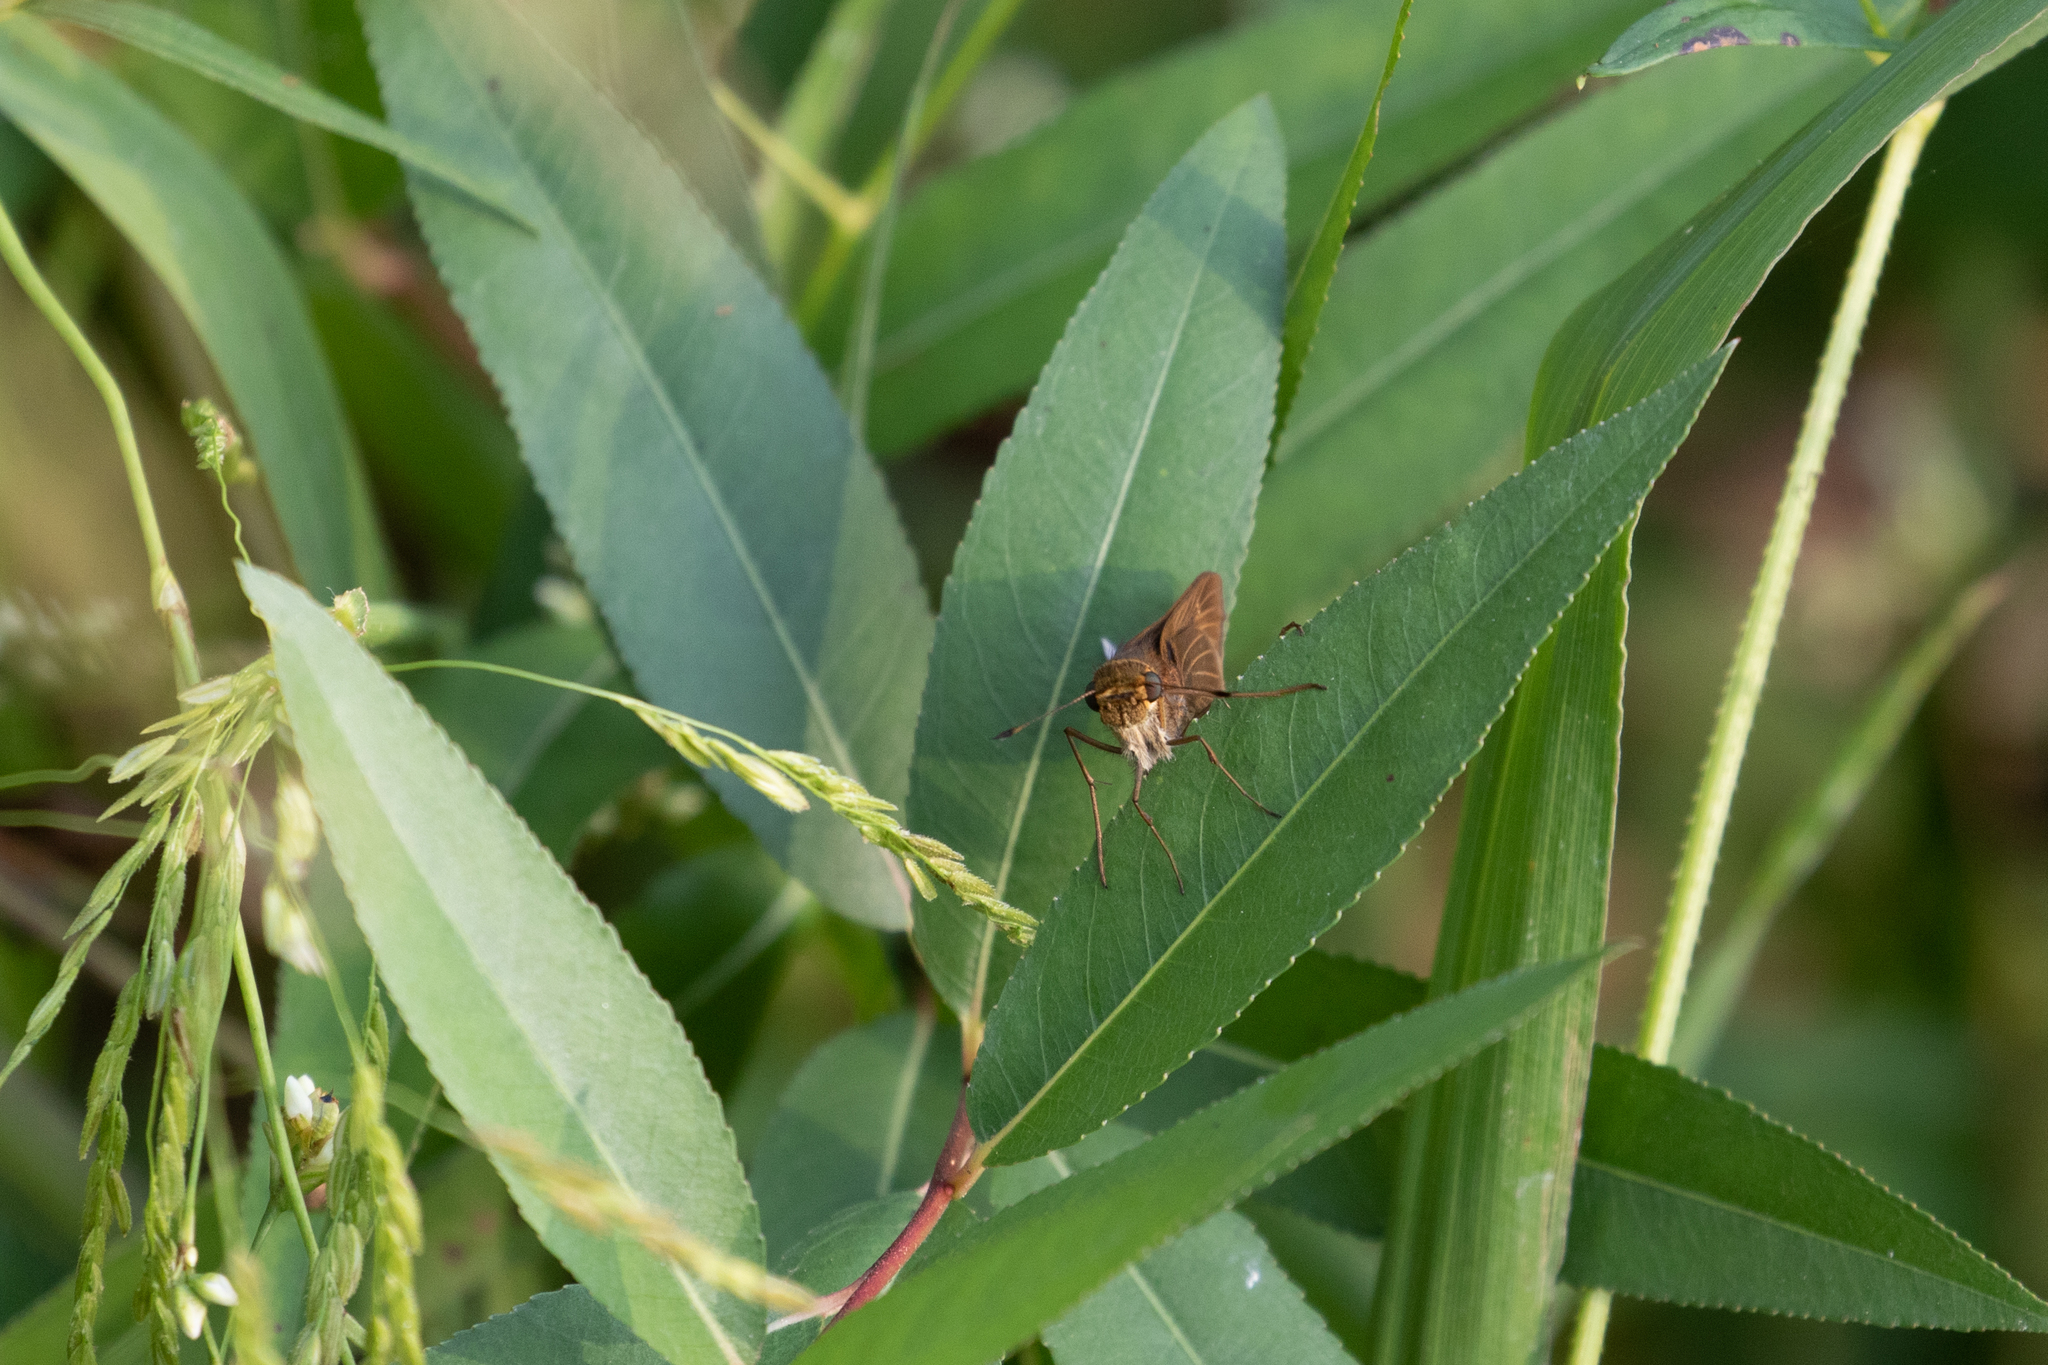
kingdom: Animalia
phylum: Arthropoda
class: Insecta
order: Lepidoptera
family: Hesperiidae
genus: Panoquina
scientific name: Panoquina ocola
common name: Ocola skipper
